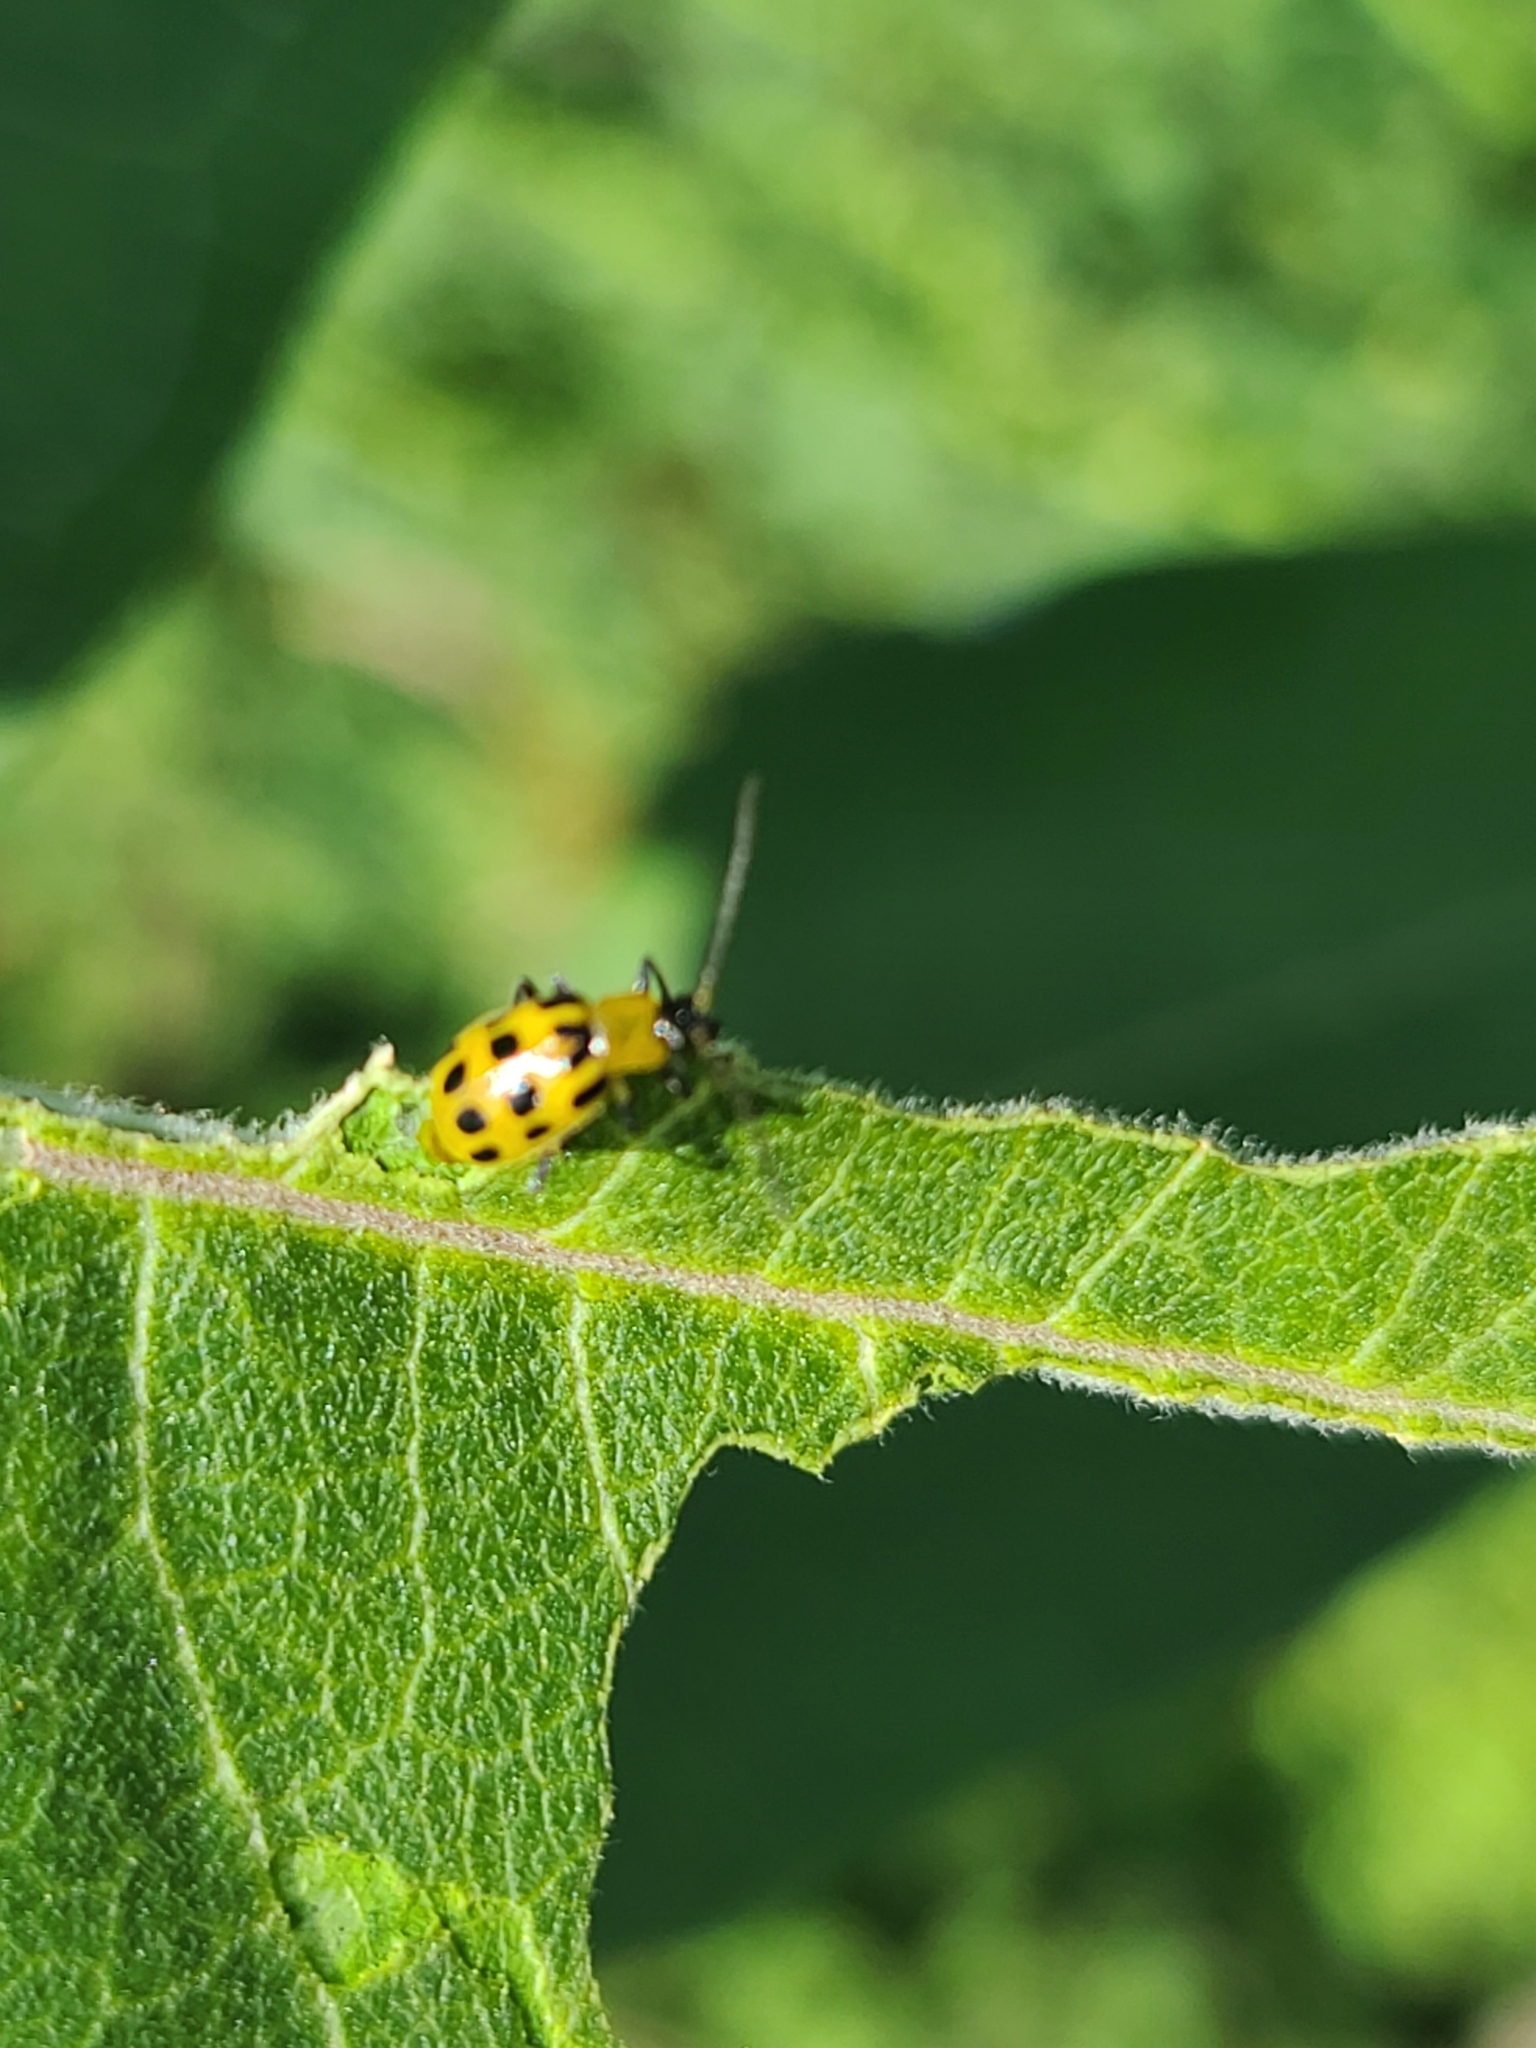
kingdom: Animalia
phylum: Arthropoda
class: Insecta
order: Coleoptera
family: Chrysomelidae
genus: Diabrotica
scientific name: Diabrotica undecimpunctata
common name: Spotted cucumber beetle
